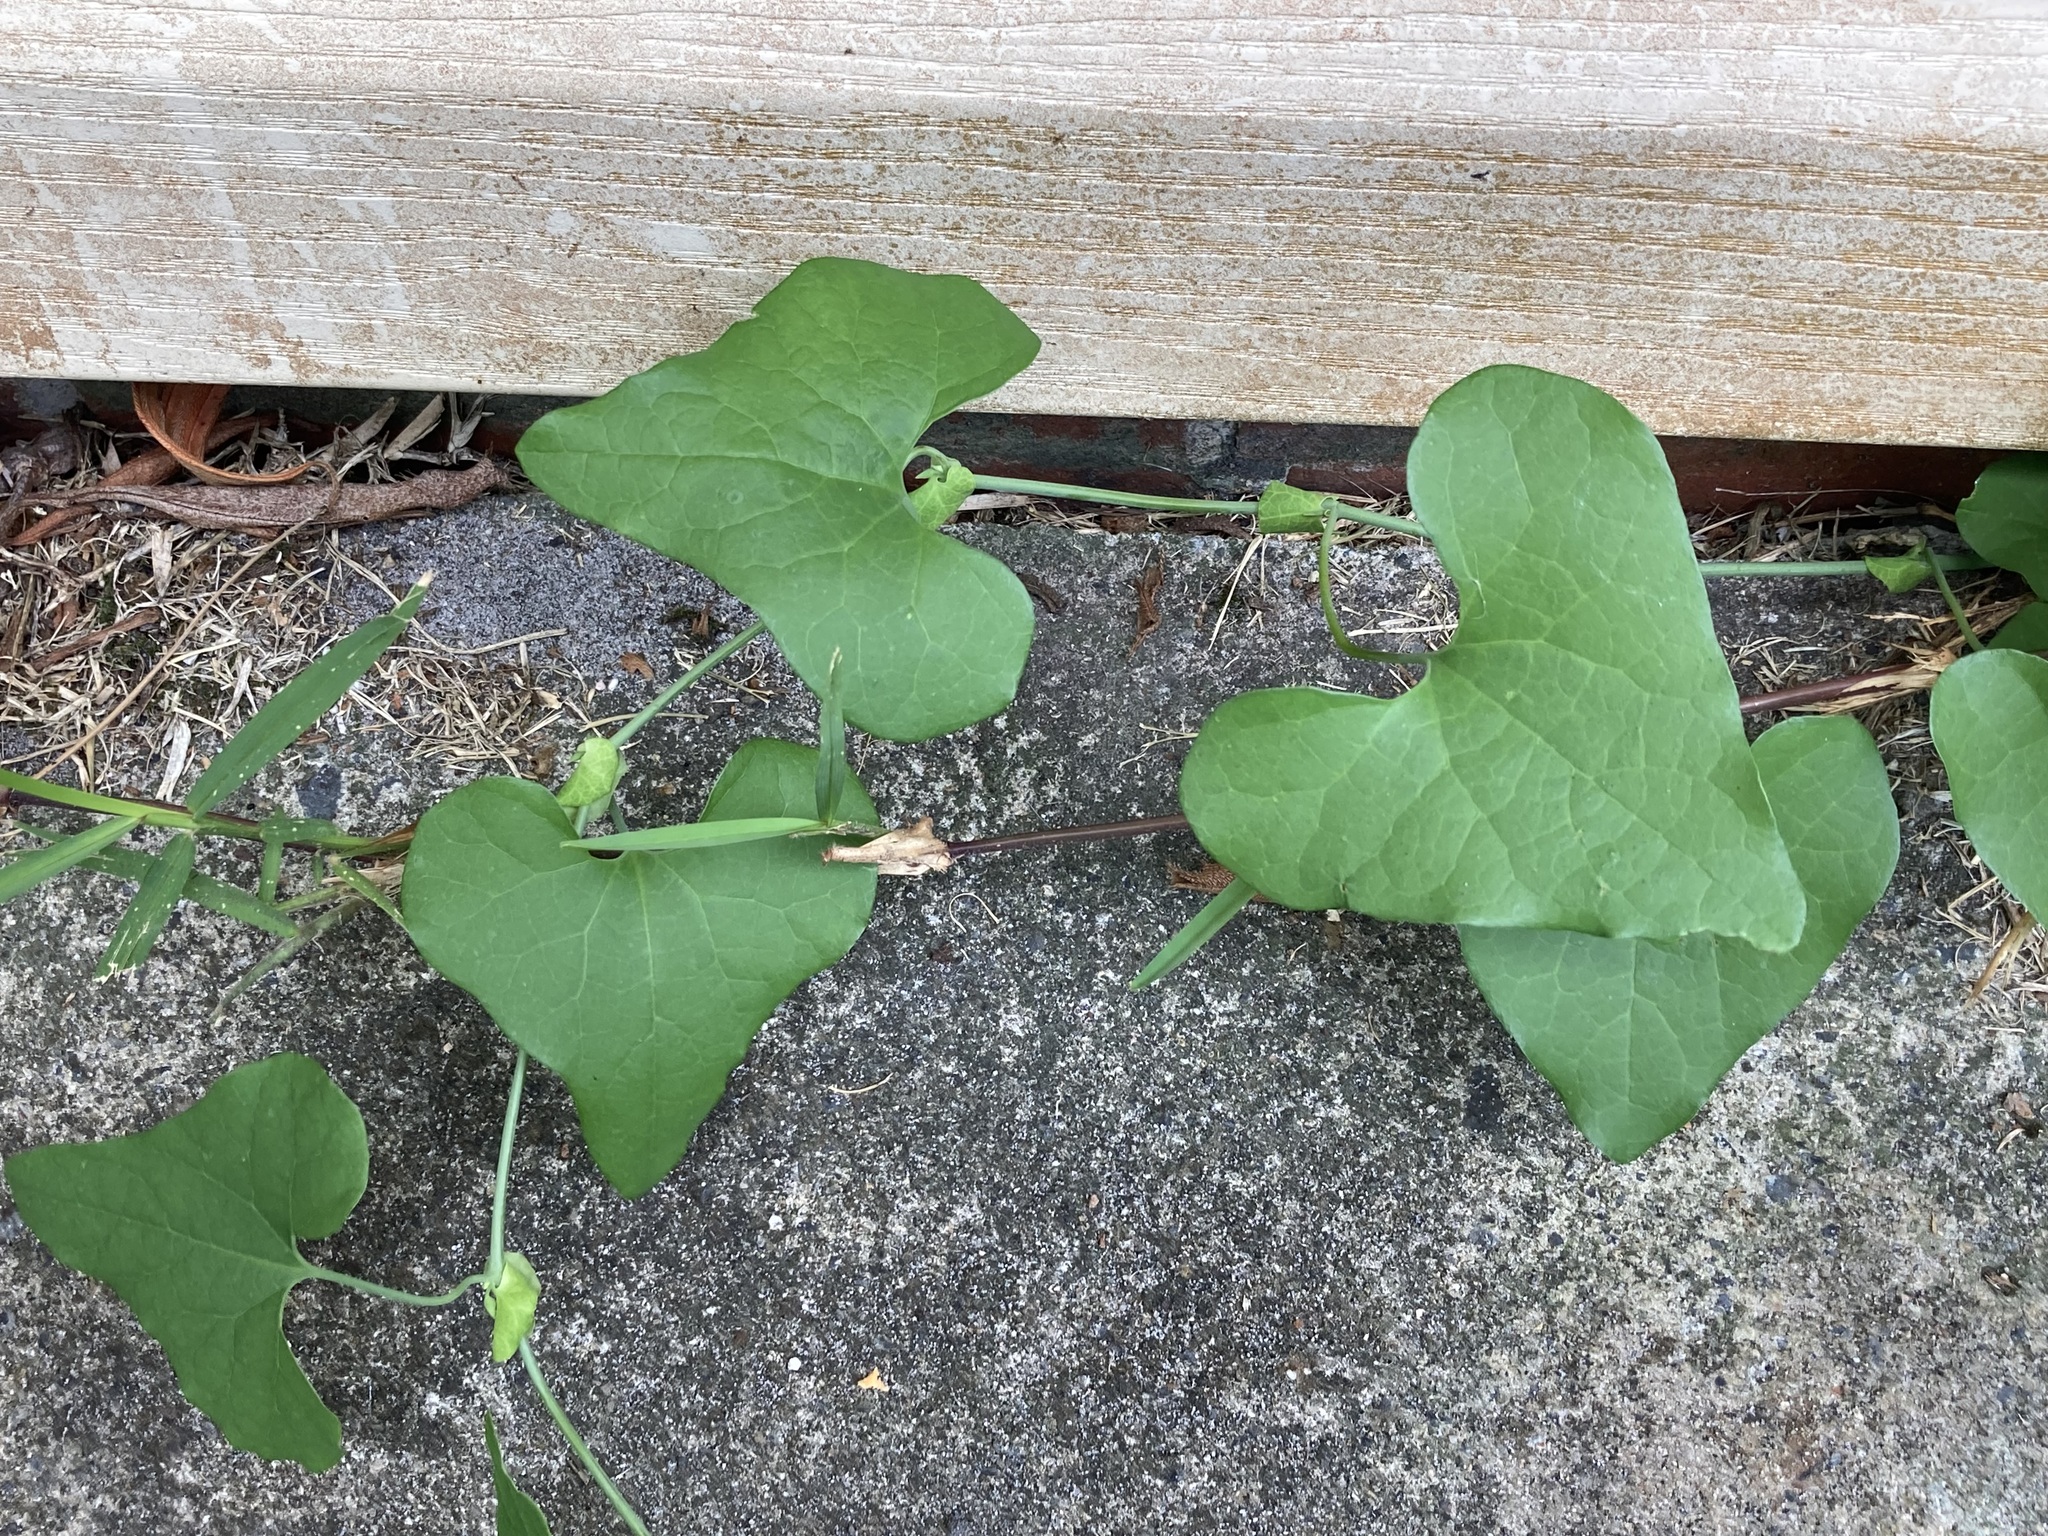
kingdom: Plantae
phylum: Tracheophyta
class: Magnoliopsida
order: Piperales
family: Aristolochiaceae
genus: Aristolochia
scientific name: Aristolochia littoralis
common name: Duck
